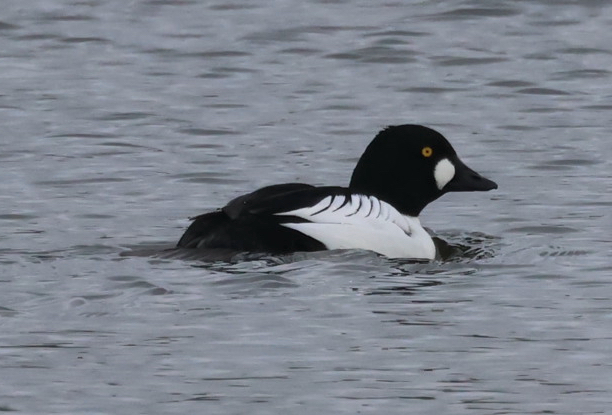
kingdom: Animalia
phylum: Chordata
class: Aves
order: Anseriformes
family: Anatidae
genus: Bucephala
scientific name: Bucephala clangula
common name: Common goldeneye
